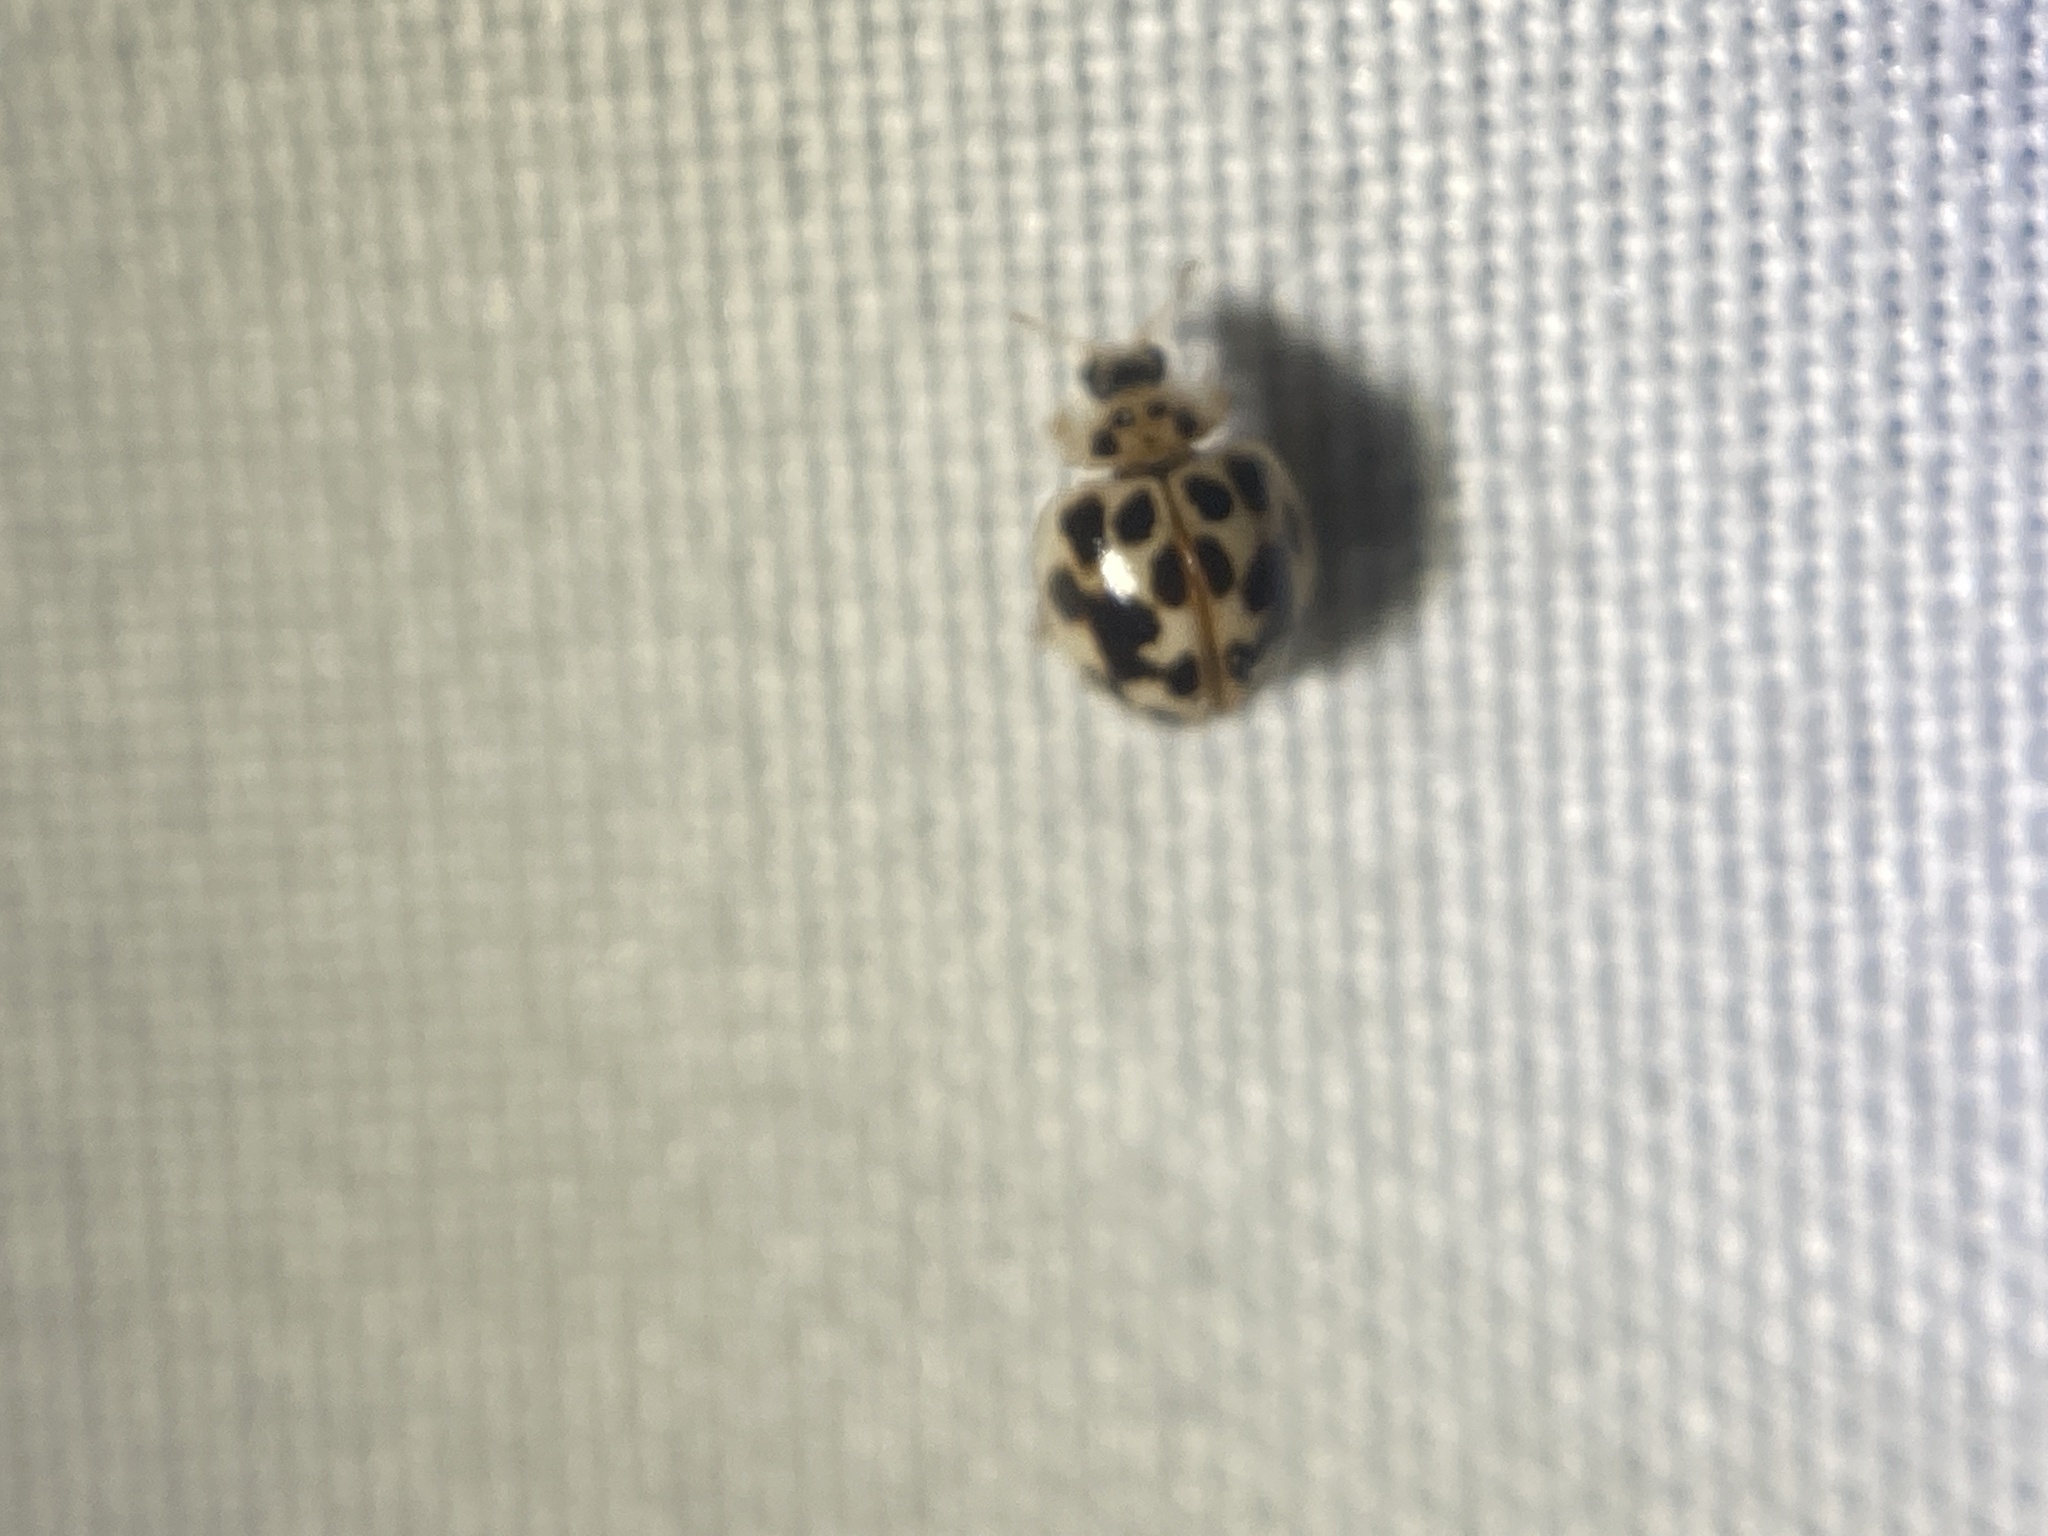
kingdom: Animalia
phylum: Arthropoda
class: Insecta
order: Coleoptera
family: Coccinellidae
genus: Psyllobora
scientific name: Psyllobora vigintimaculata
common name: Ladybird beetle
